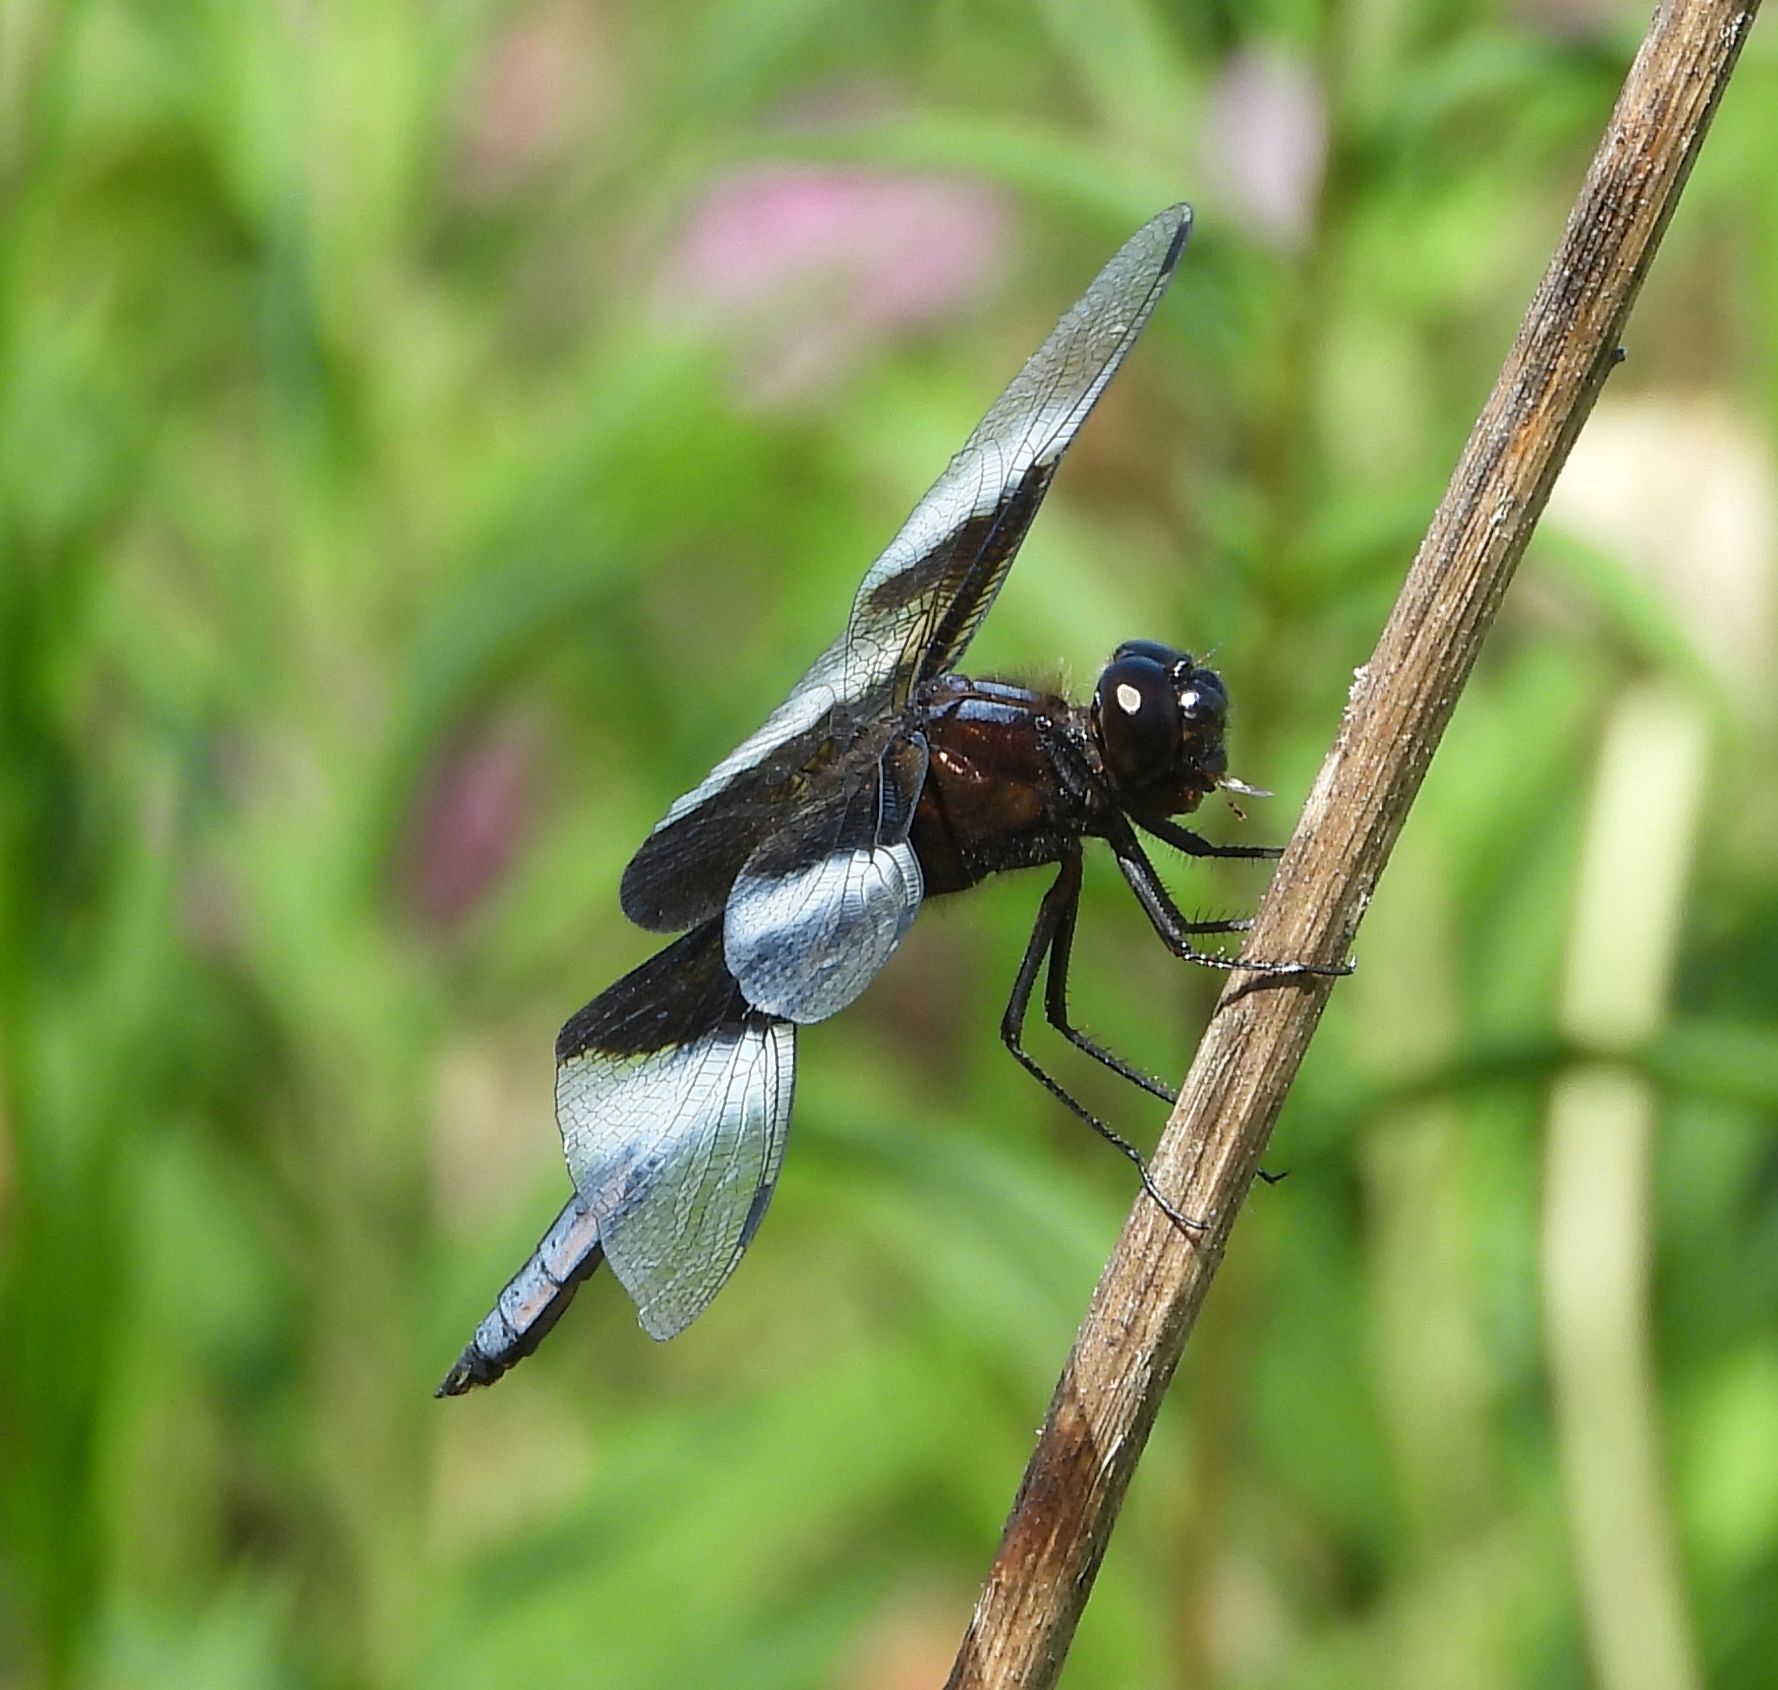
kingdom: Animalia
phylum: Arthropoda
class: Insecta
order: Odonata
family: Libellulidae
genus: Libellula
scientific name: Libellula luctuosa
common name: Widow skimmer
